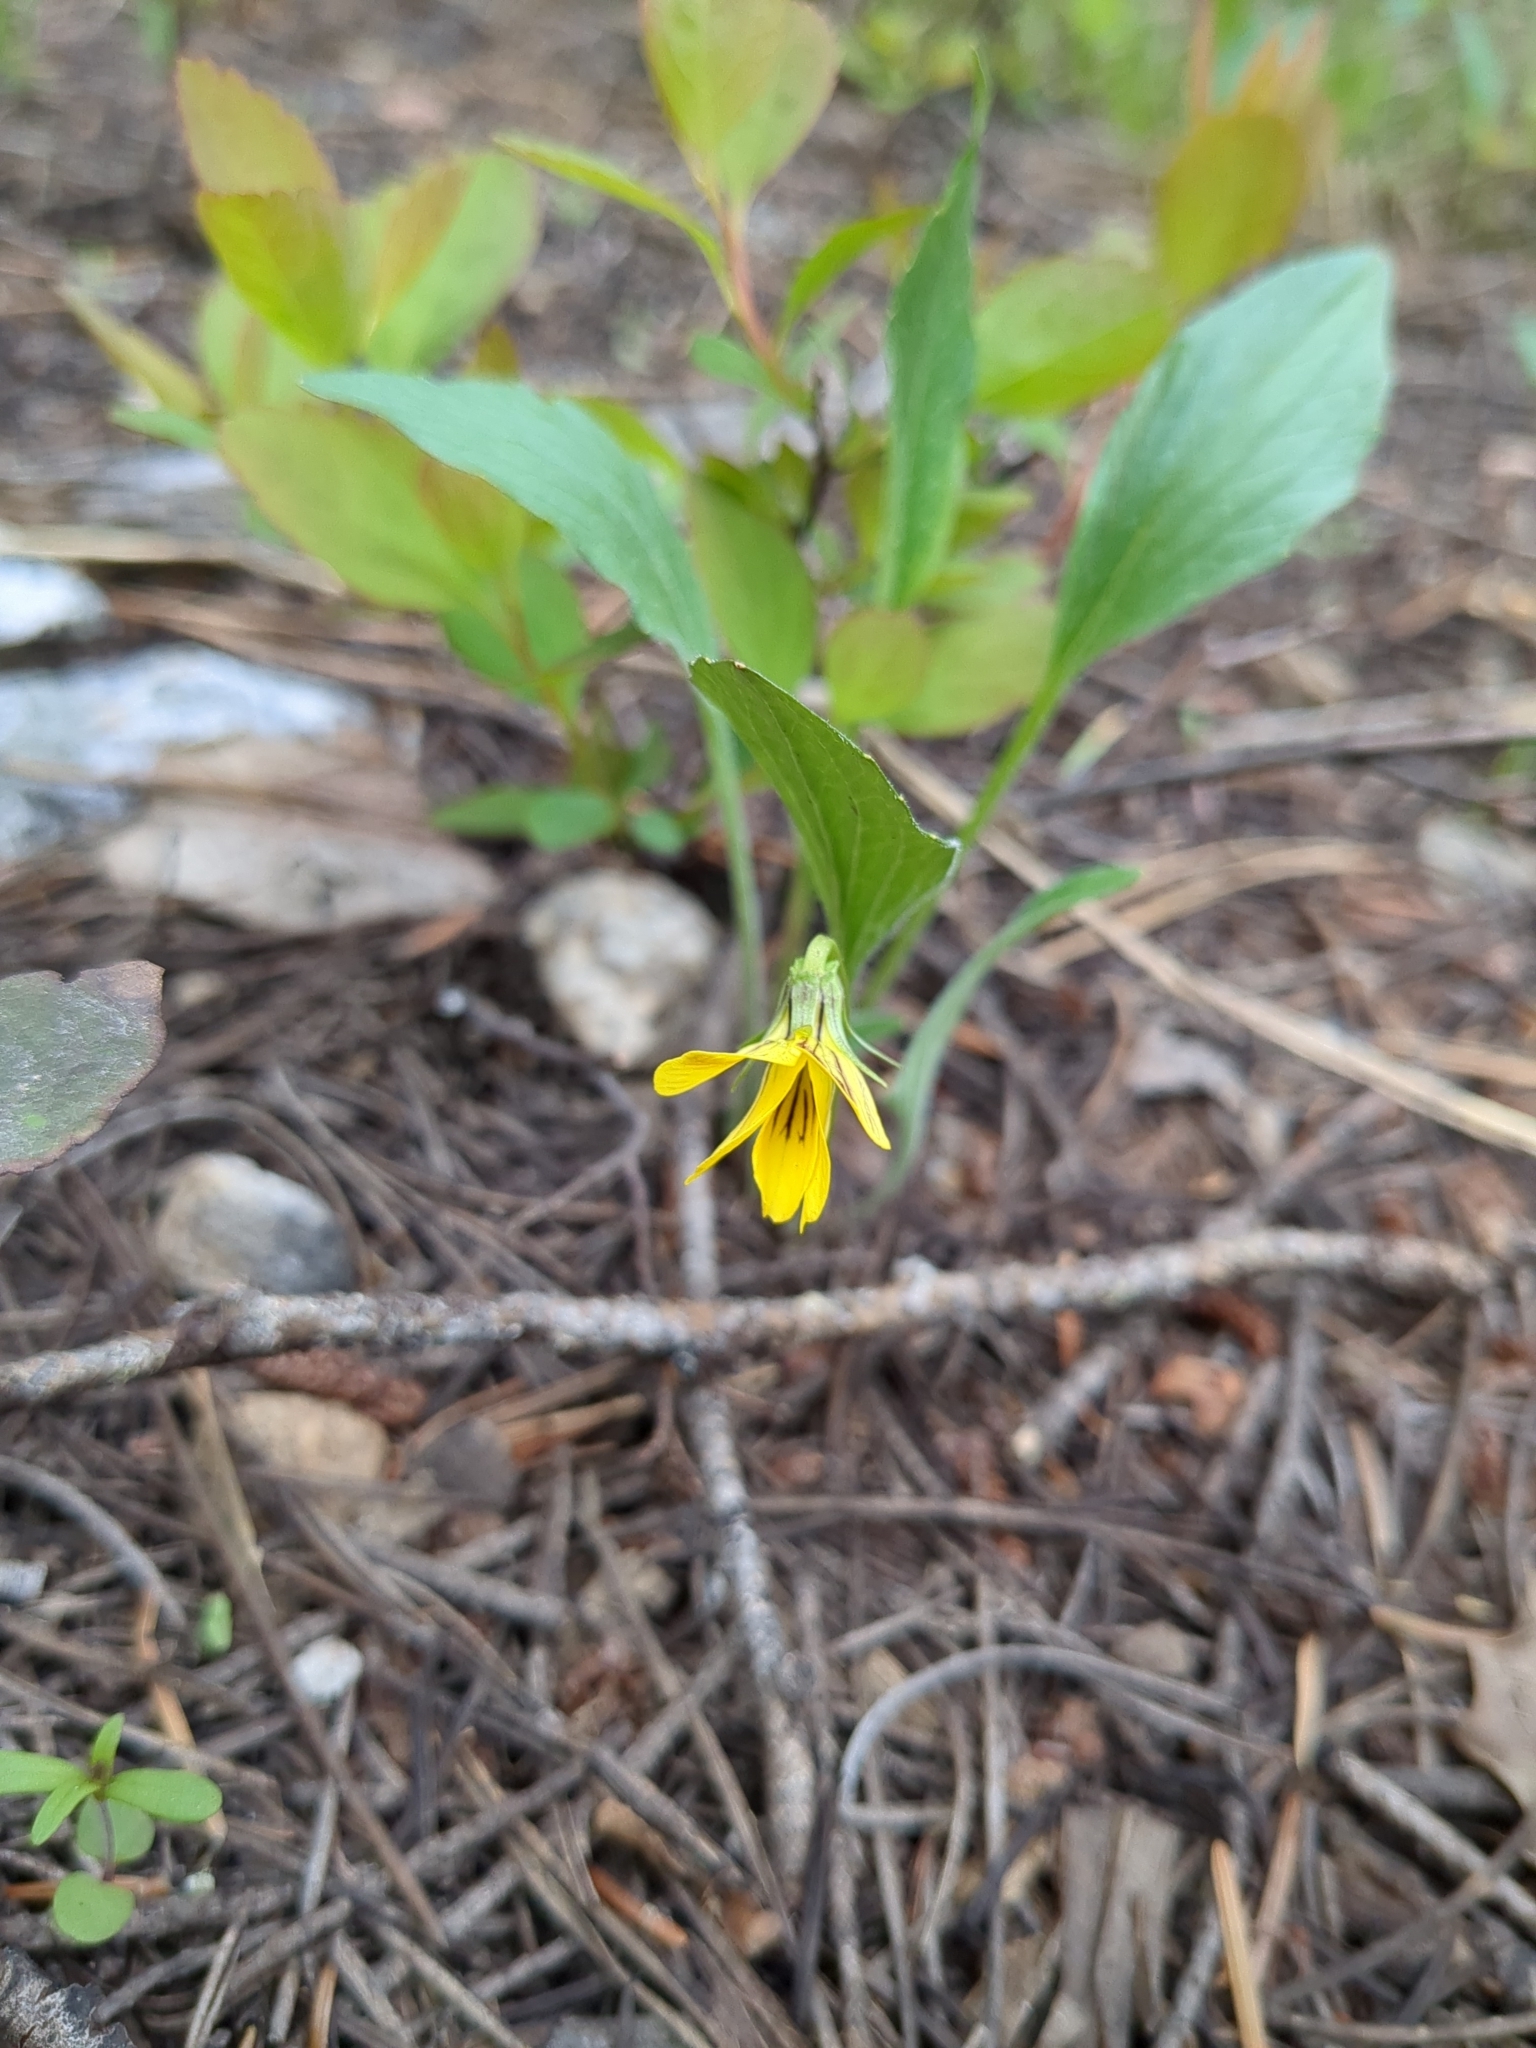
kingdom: Plantae
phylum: Tracheophyta
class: Magnoliopsida
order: Malpighiales
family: Violaceae
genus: Viola
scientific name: Viola praemorsa
